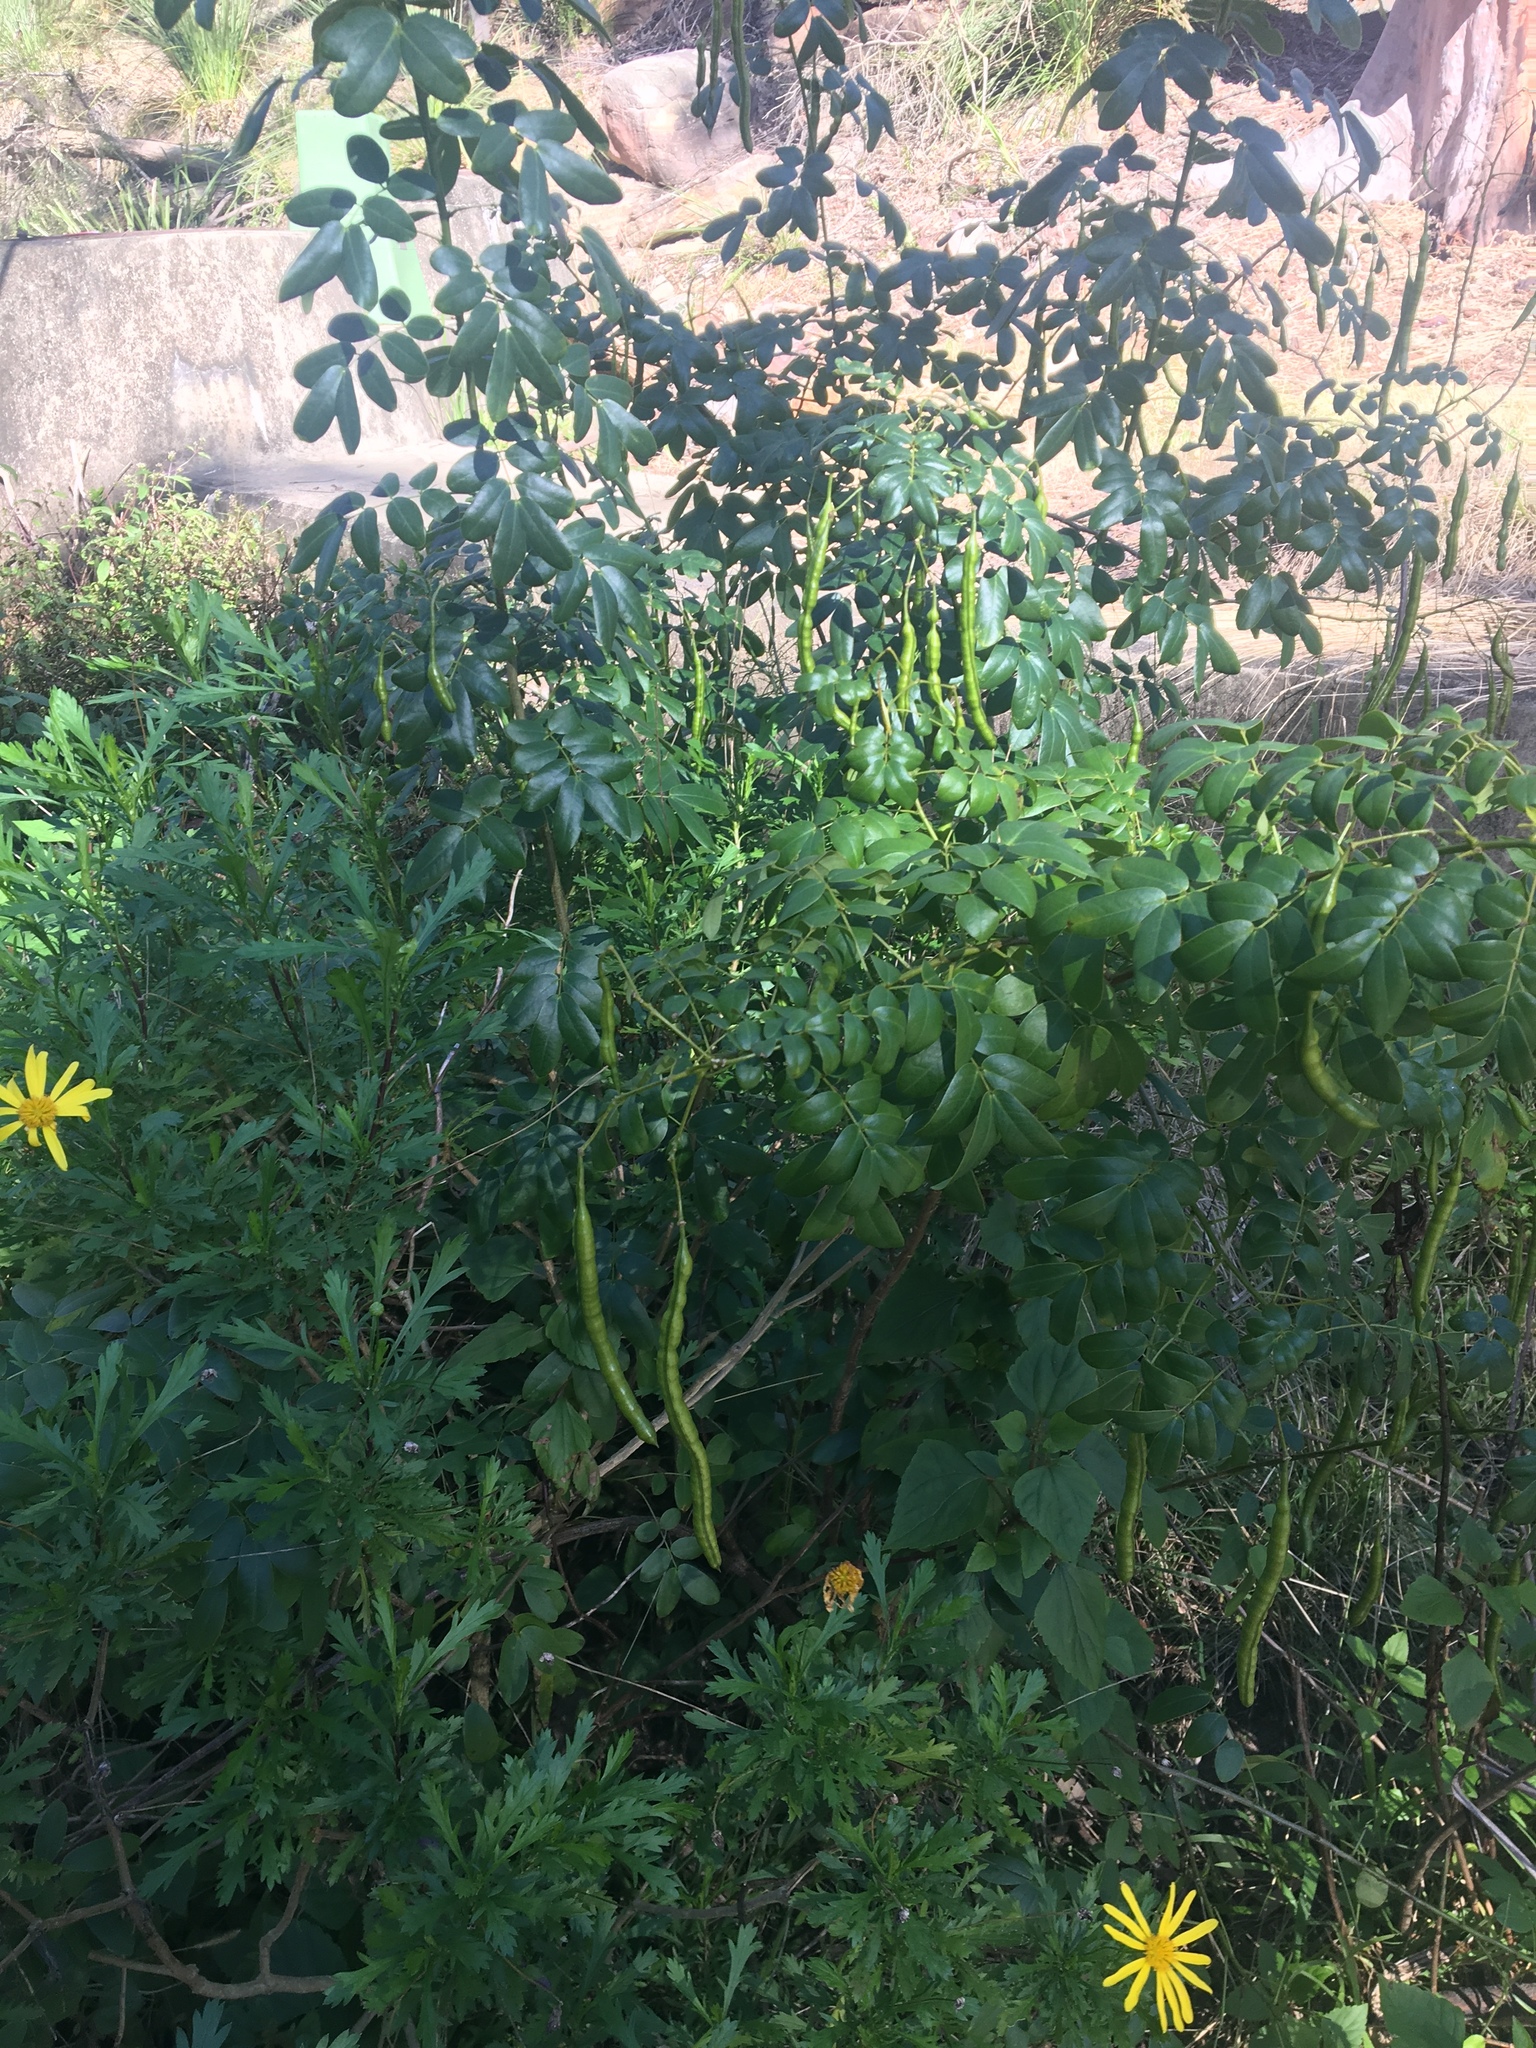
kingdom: Plantae
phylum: Tracheophyta
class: Magnoliopsida
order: Fabales
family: Fabaceae
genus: Senna
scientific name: Senna pendula
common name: Easter cassia
